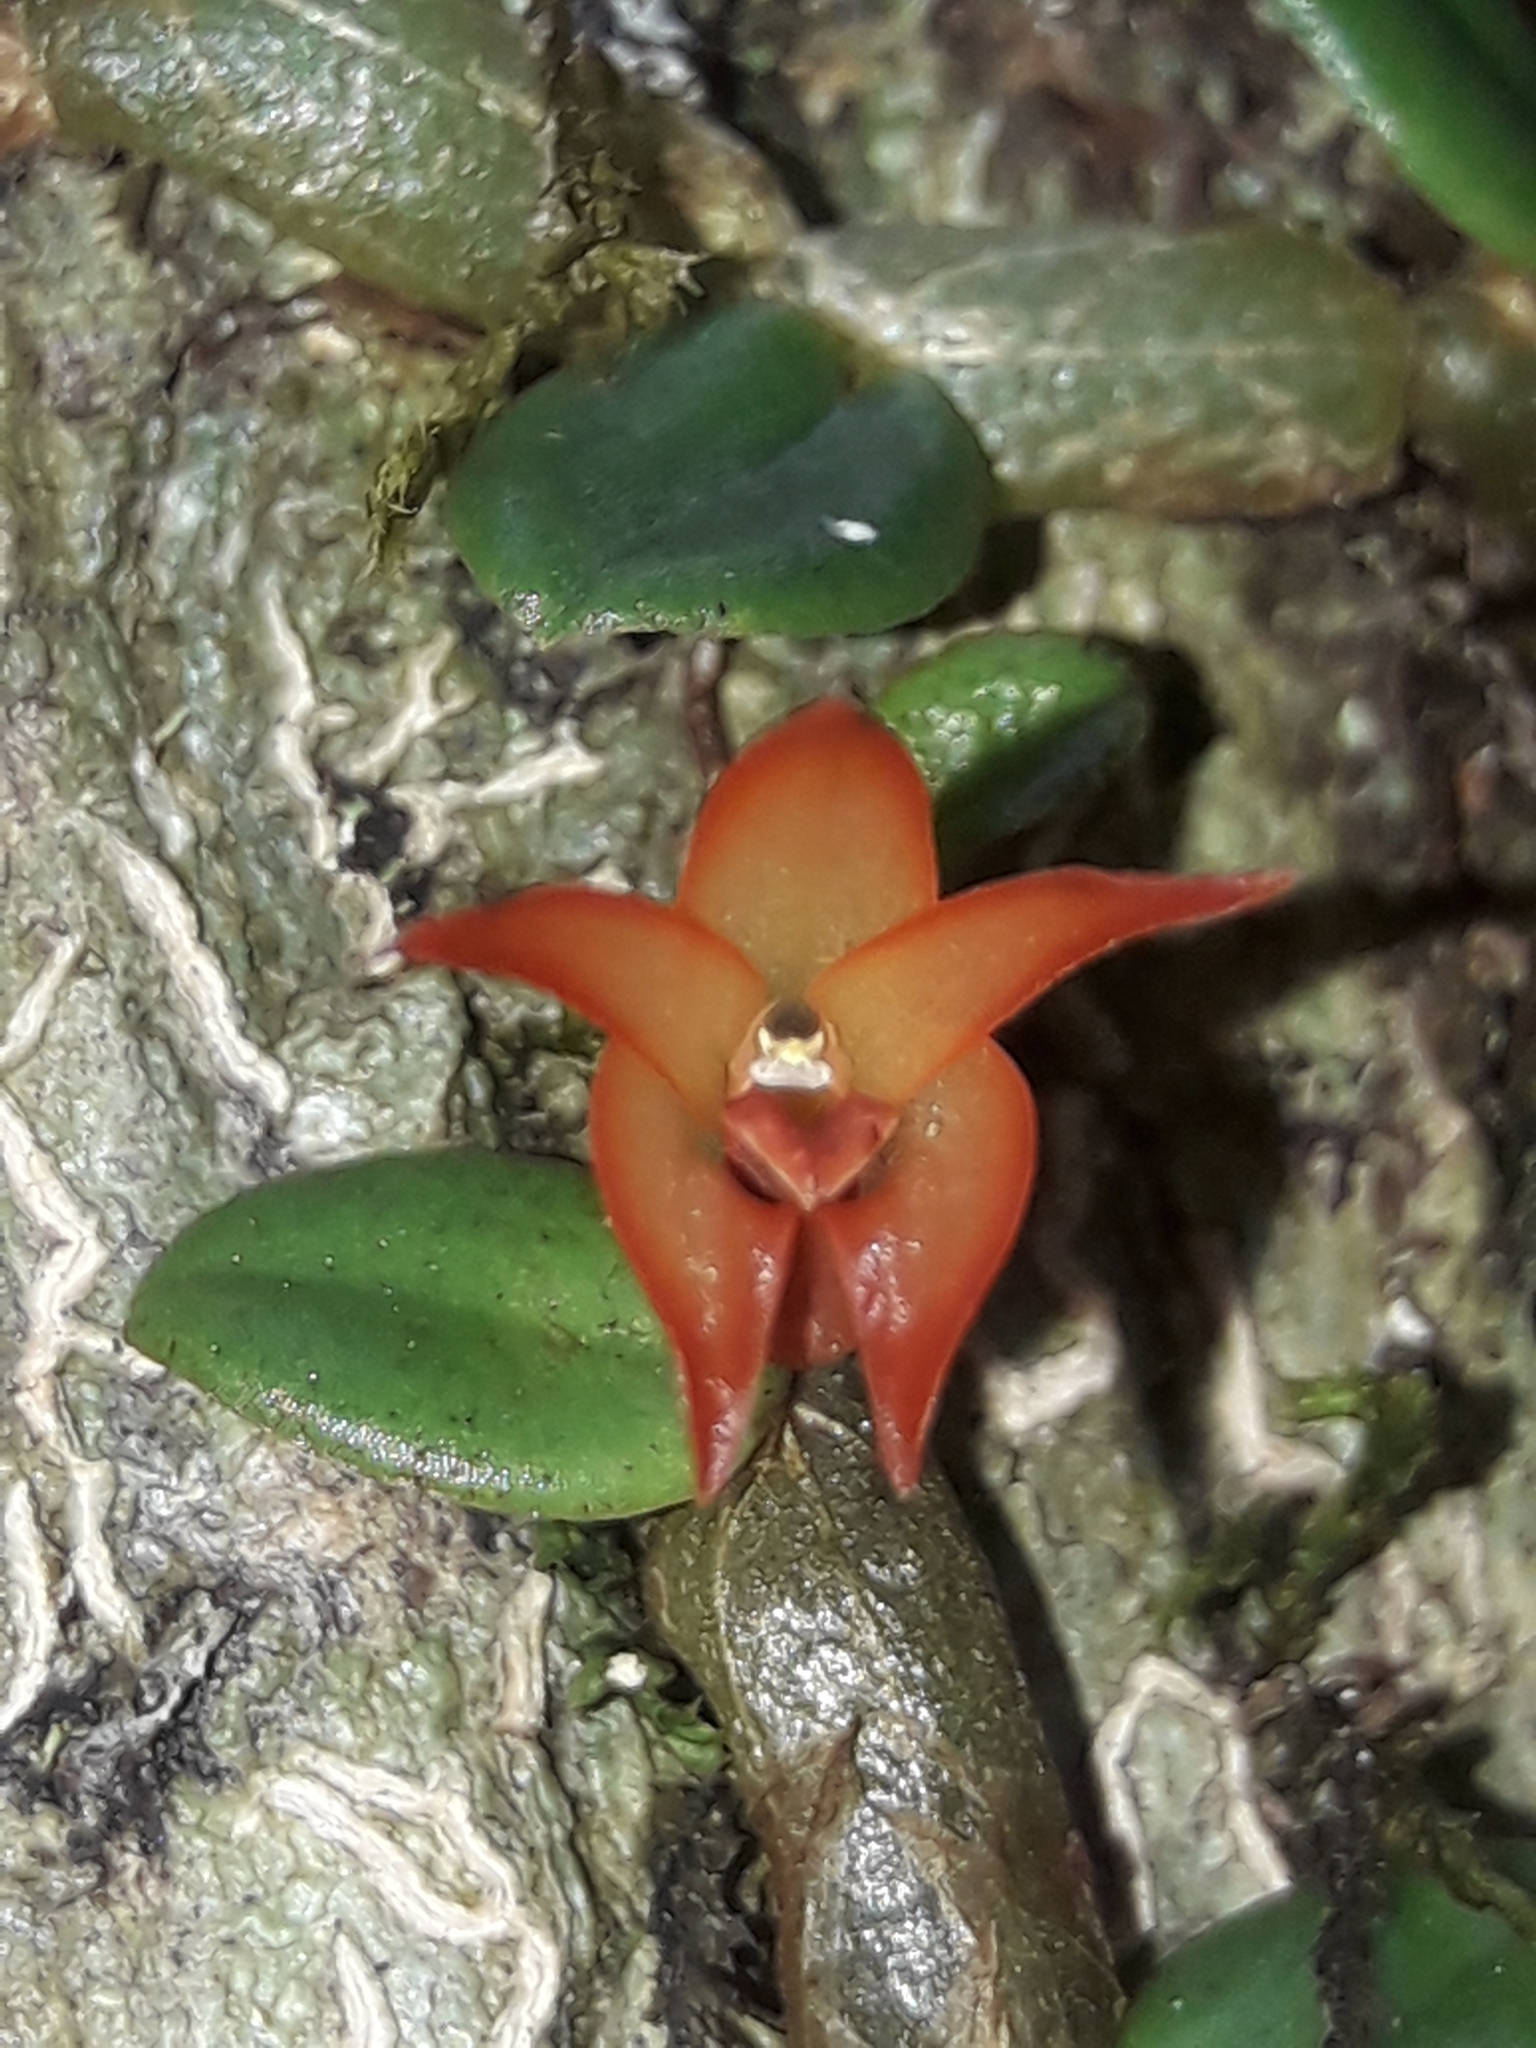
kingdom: Plantae
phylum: Tracheophyta
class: Liliopsida
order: Asparagales
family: Orchidaceae
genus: Porpax
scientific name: Porpax karikouyensis
